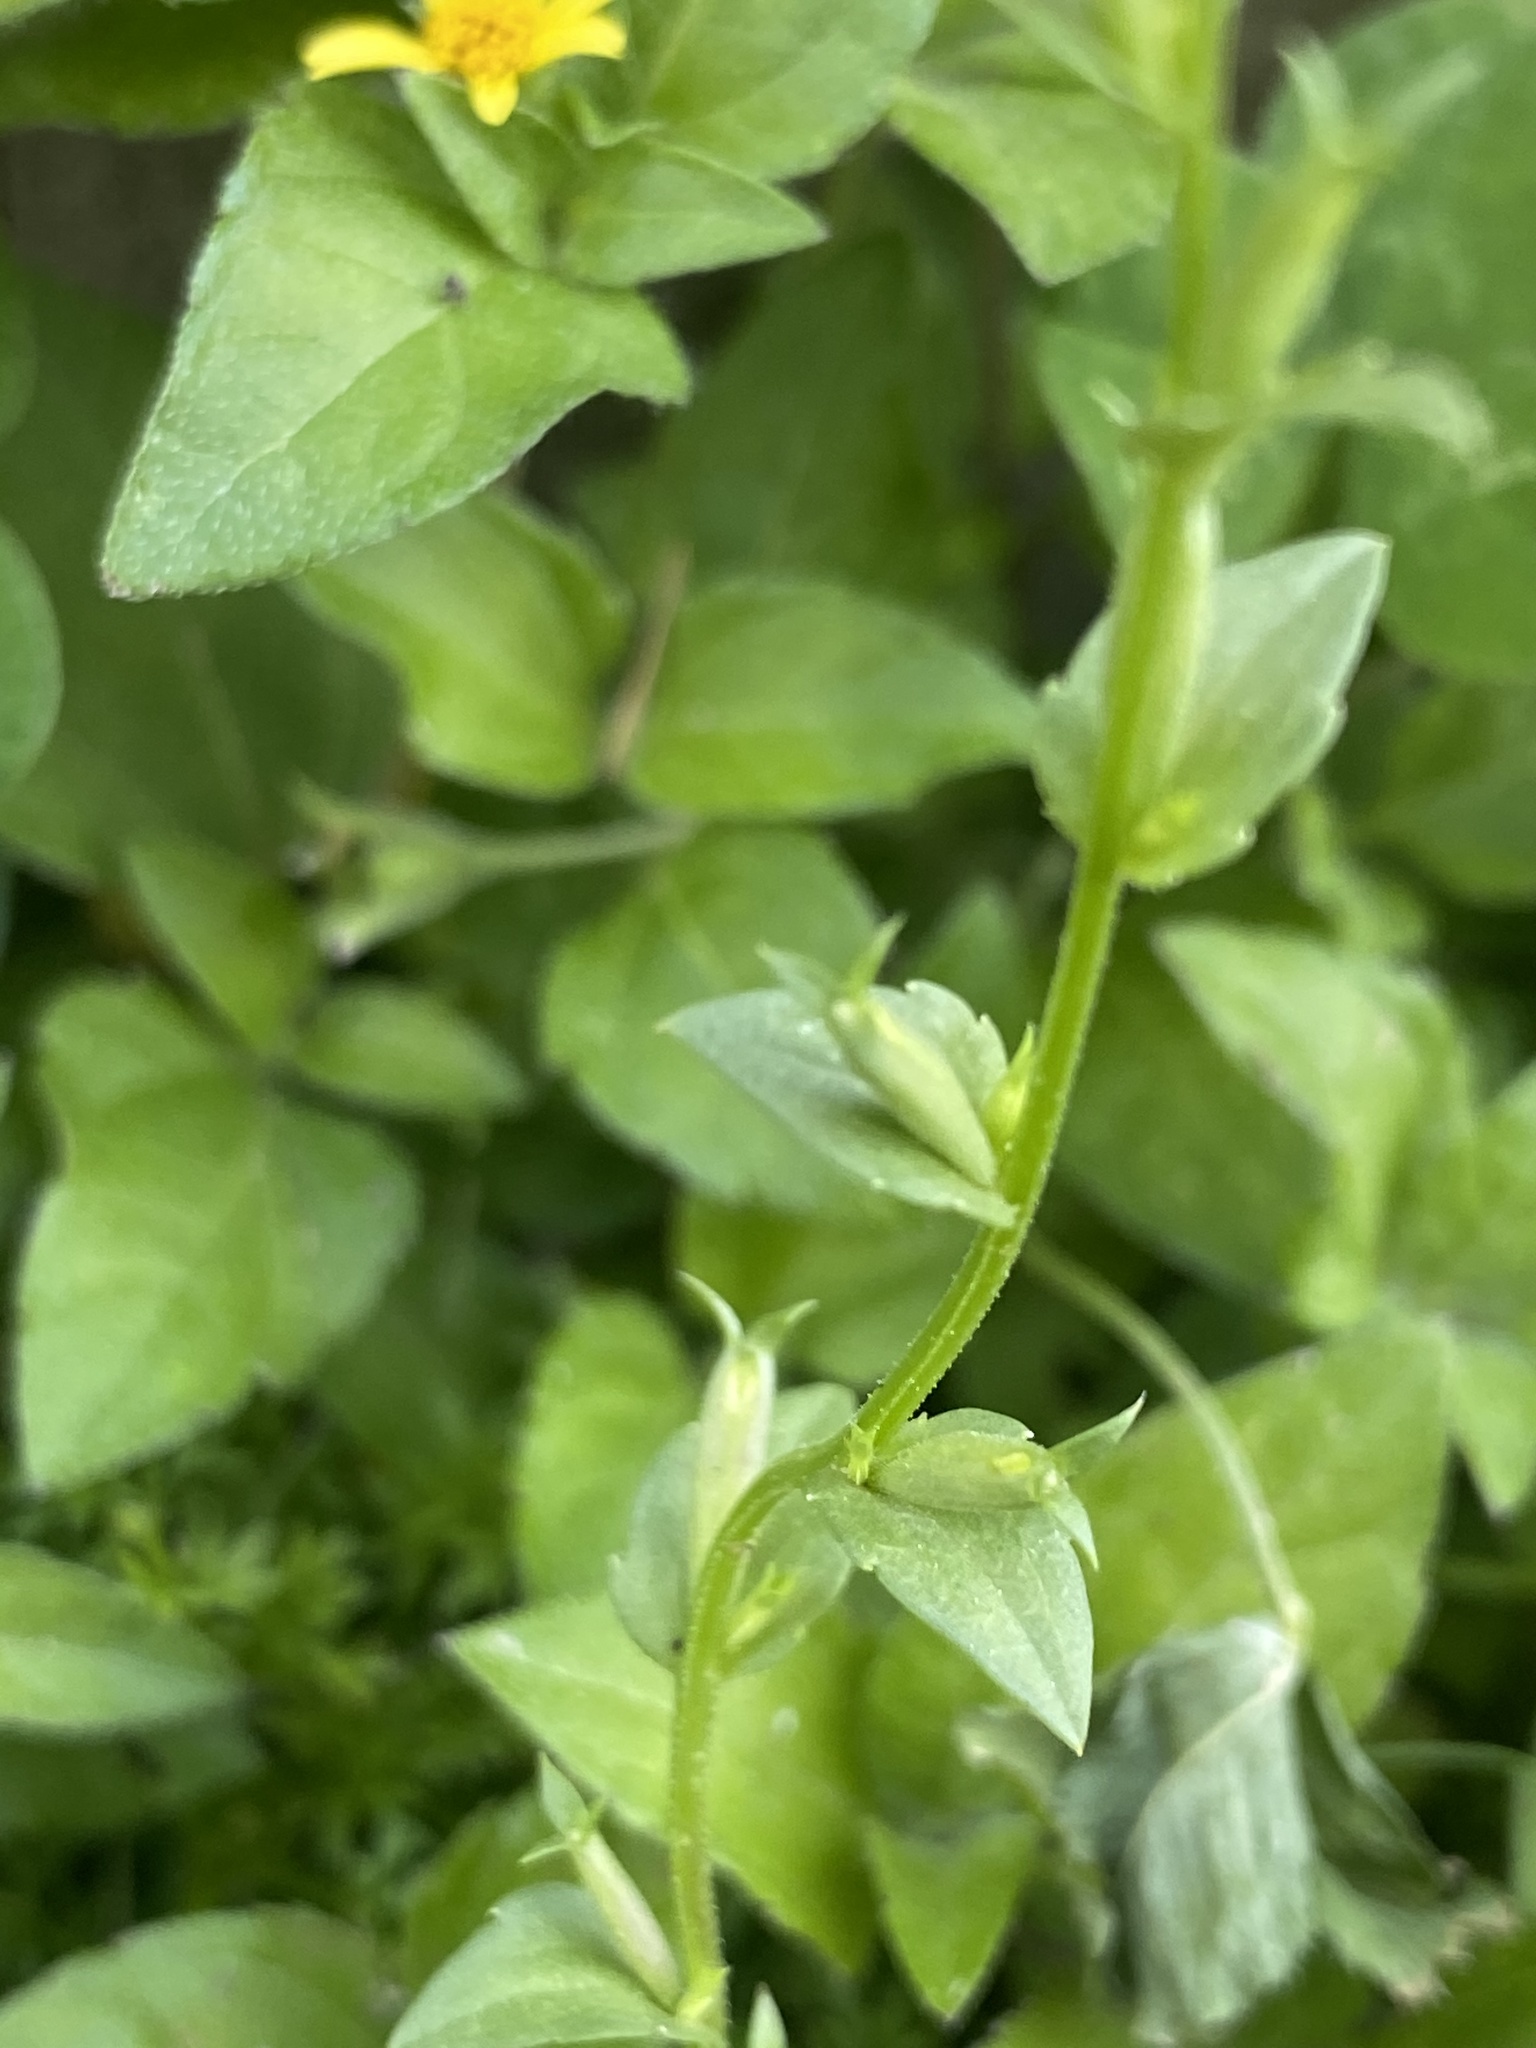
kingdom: Plantae
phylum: Tracheophyta
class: Magnoliopsida
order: Asterales
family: Campanulaceae
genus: Triodanis
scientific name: Triodanis biflora
